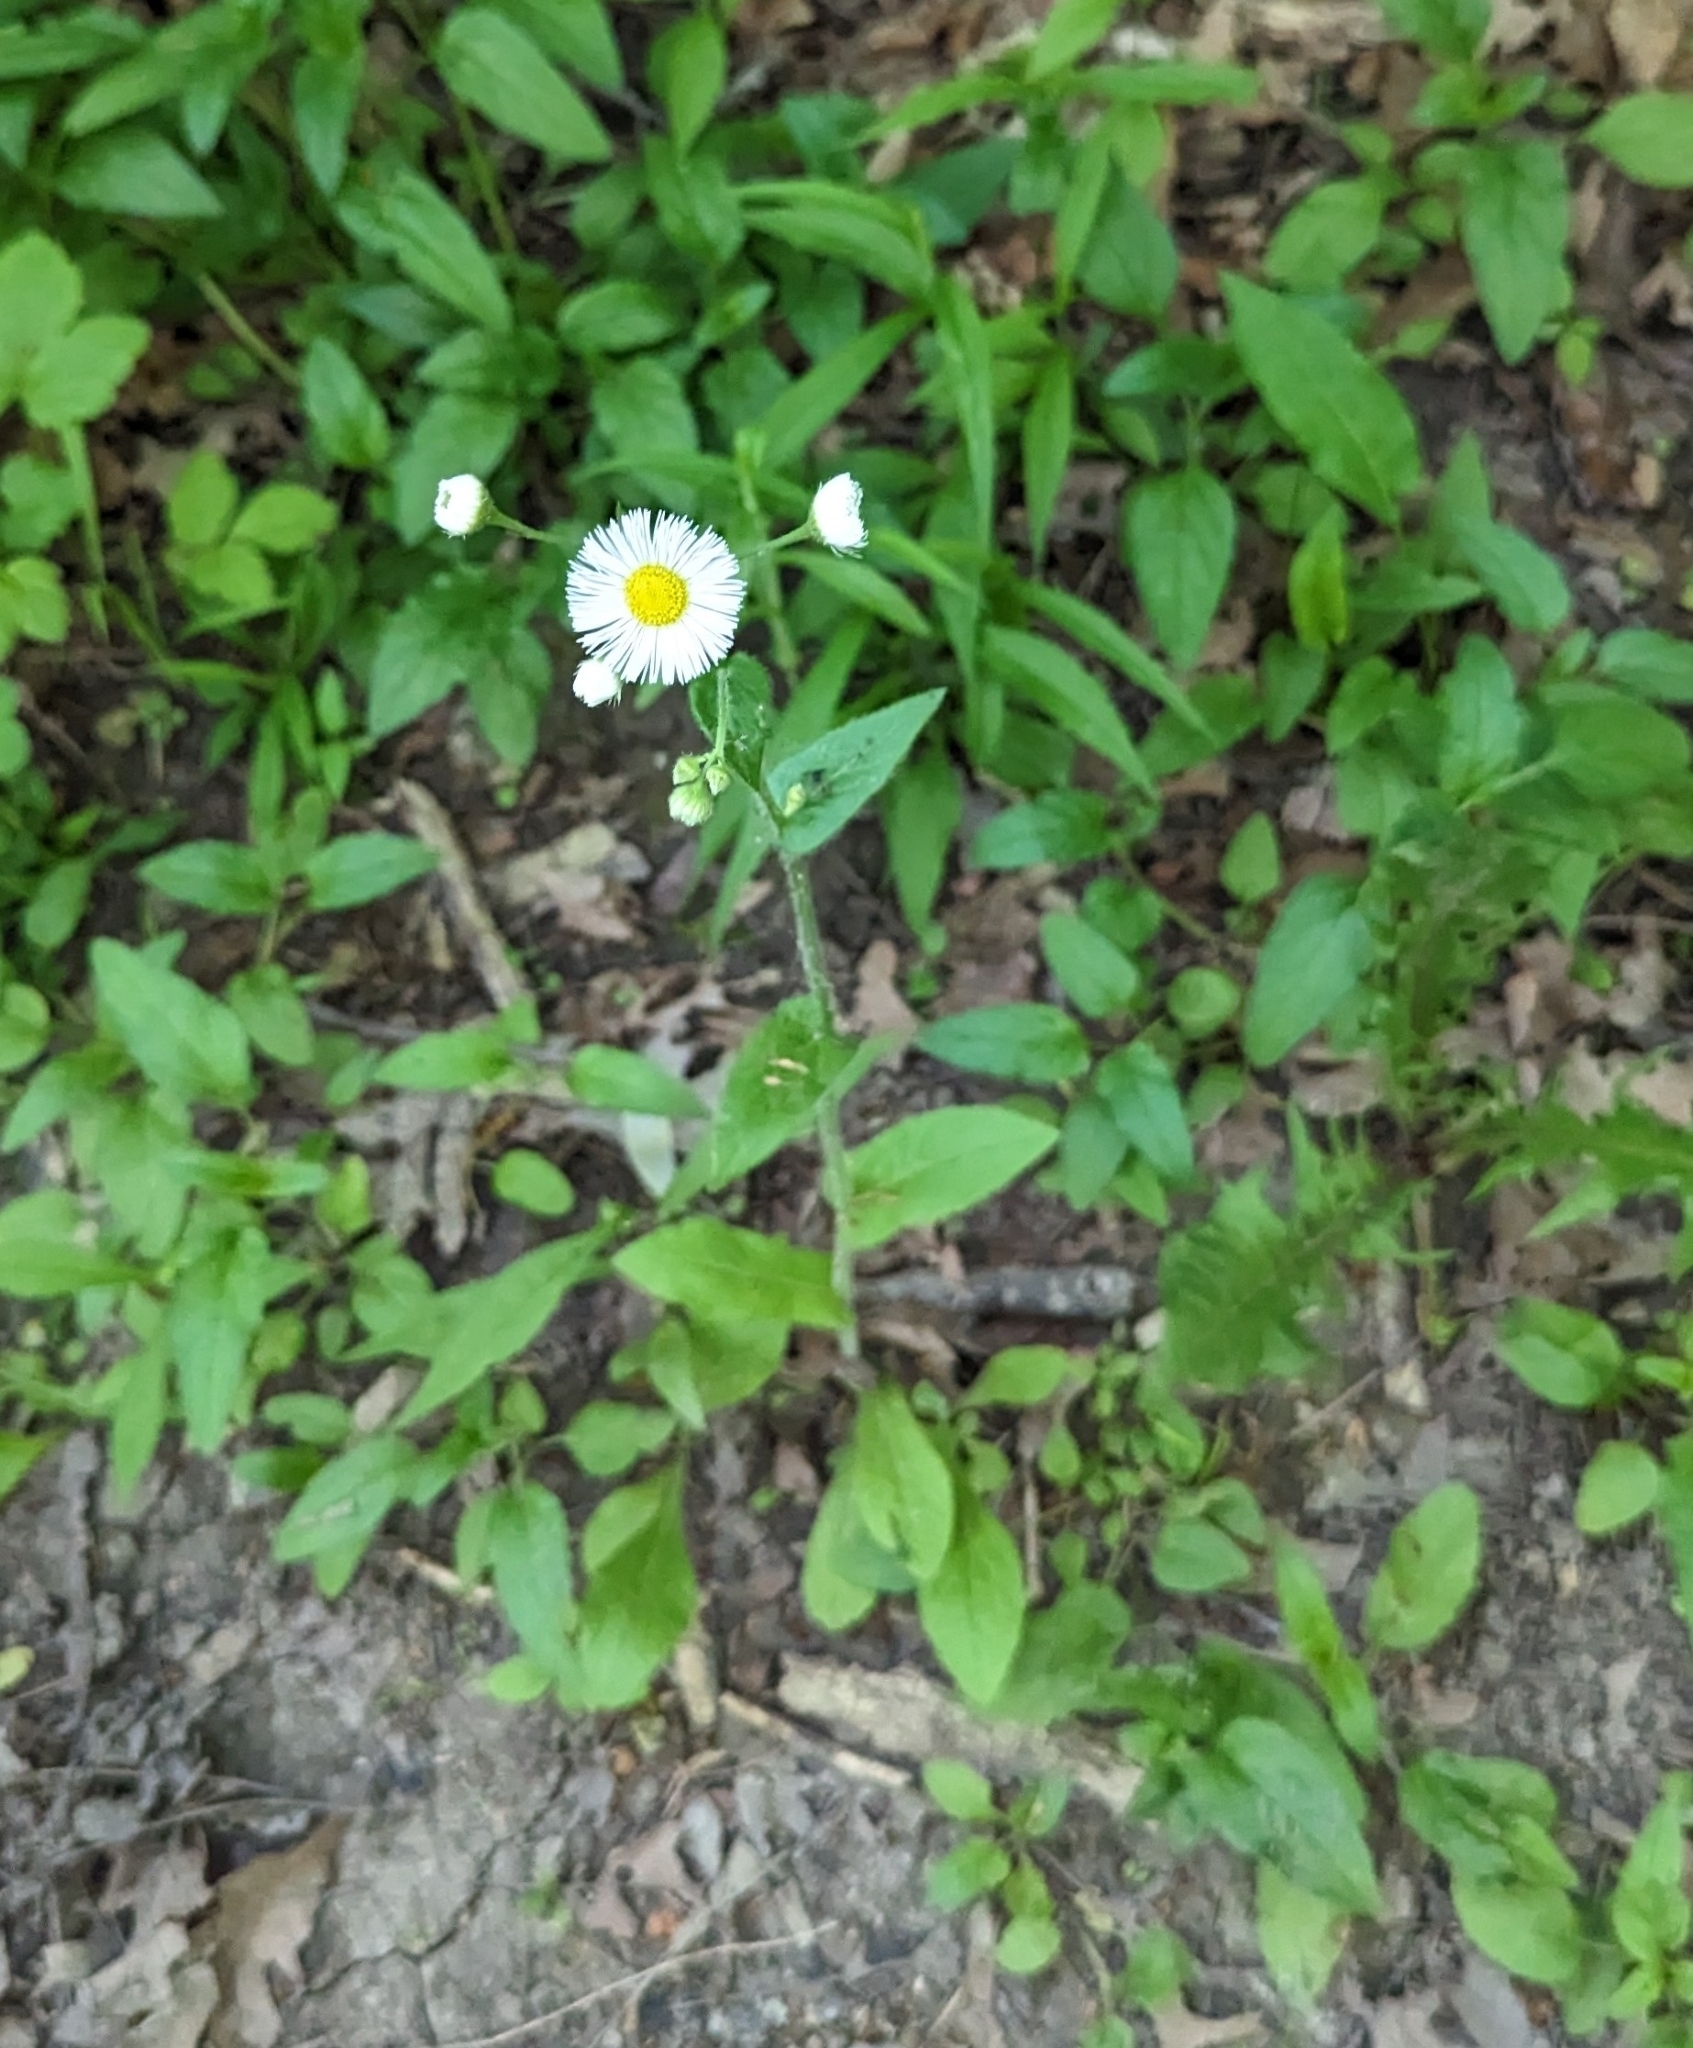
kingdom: Plantae
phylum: Tracheophyta
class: Magnoliopsida
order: Asterales
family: Asteraceae
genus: Erigeron
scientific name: Erigeron philadelphicus
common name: Robin's-plantain
